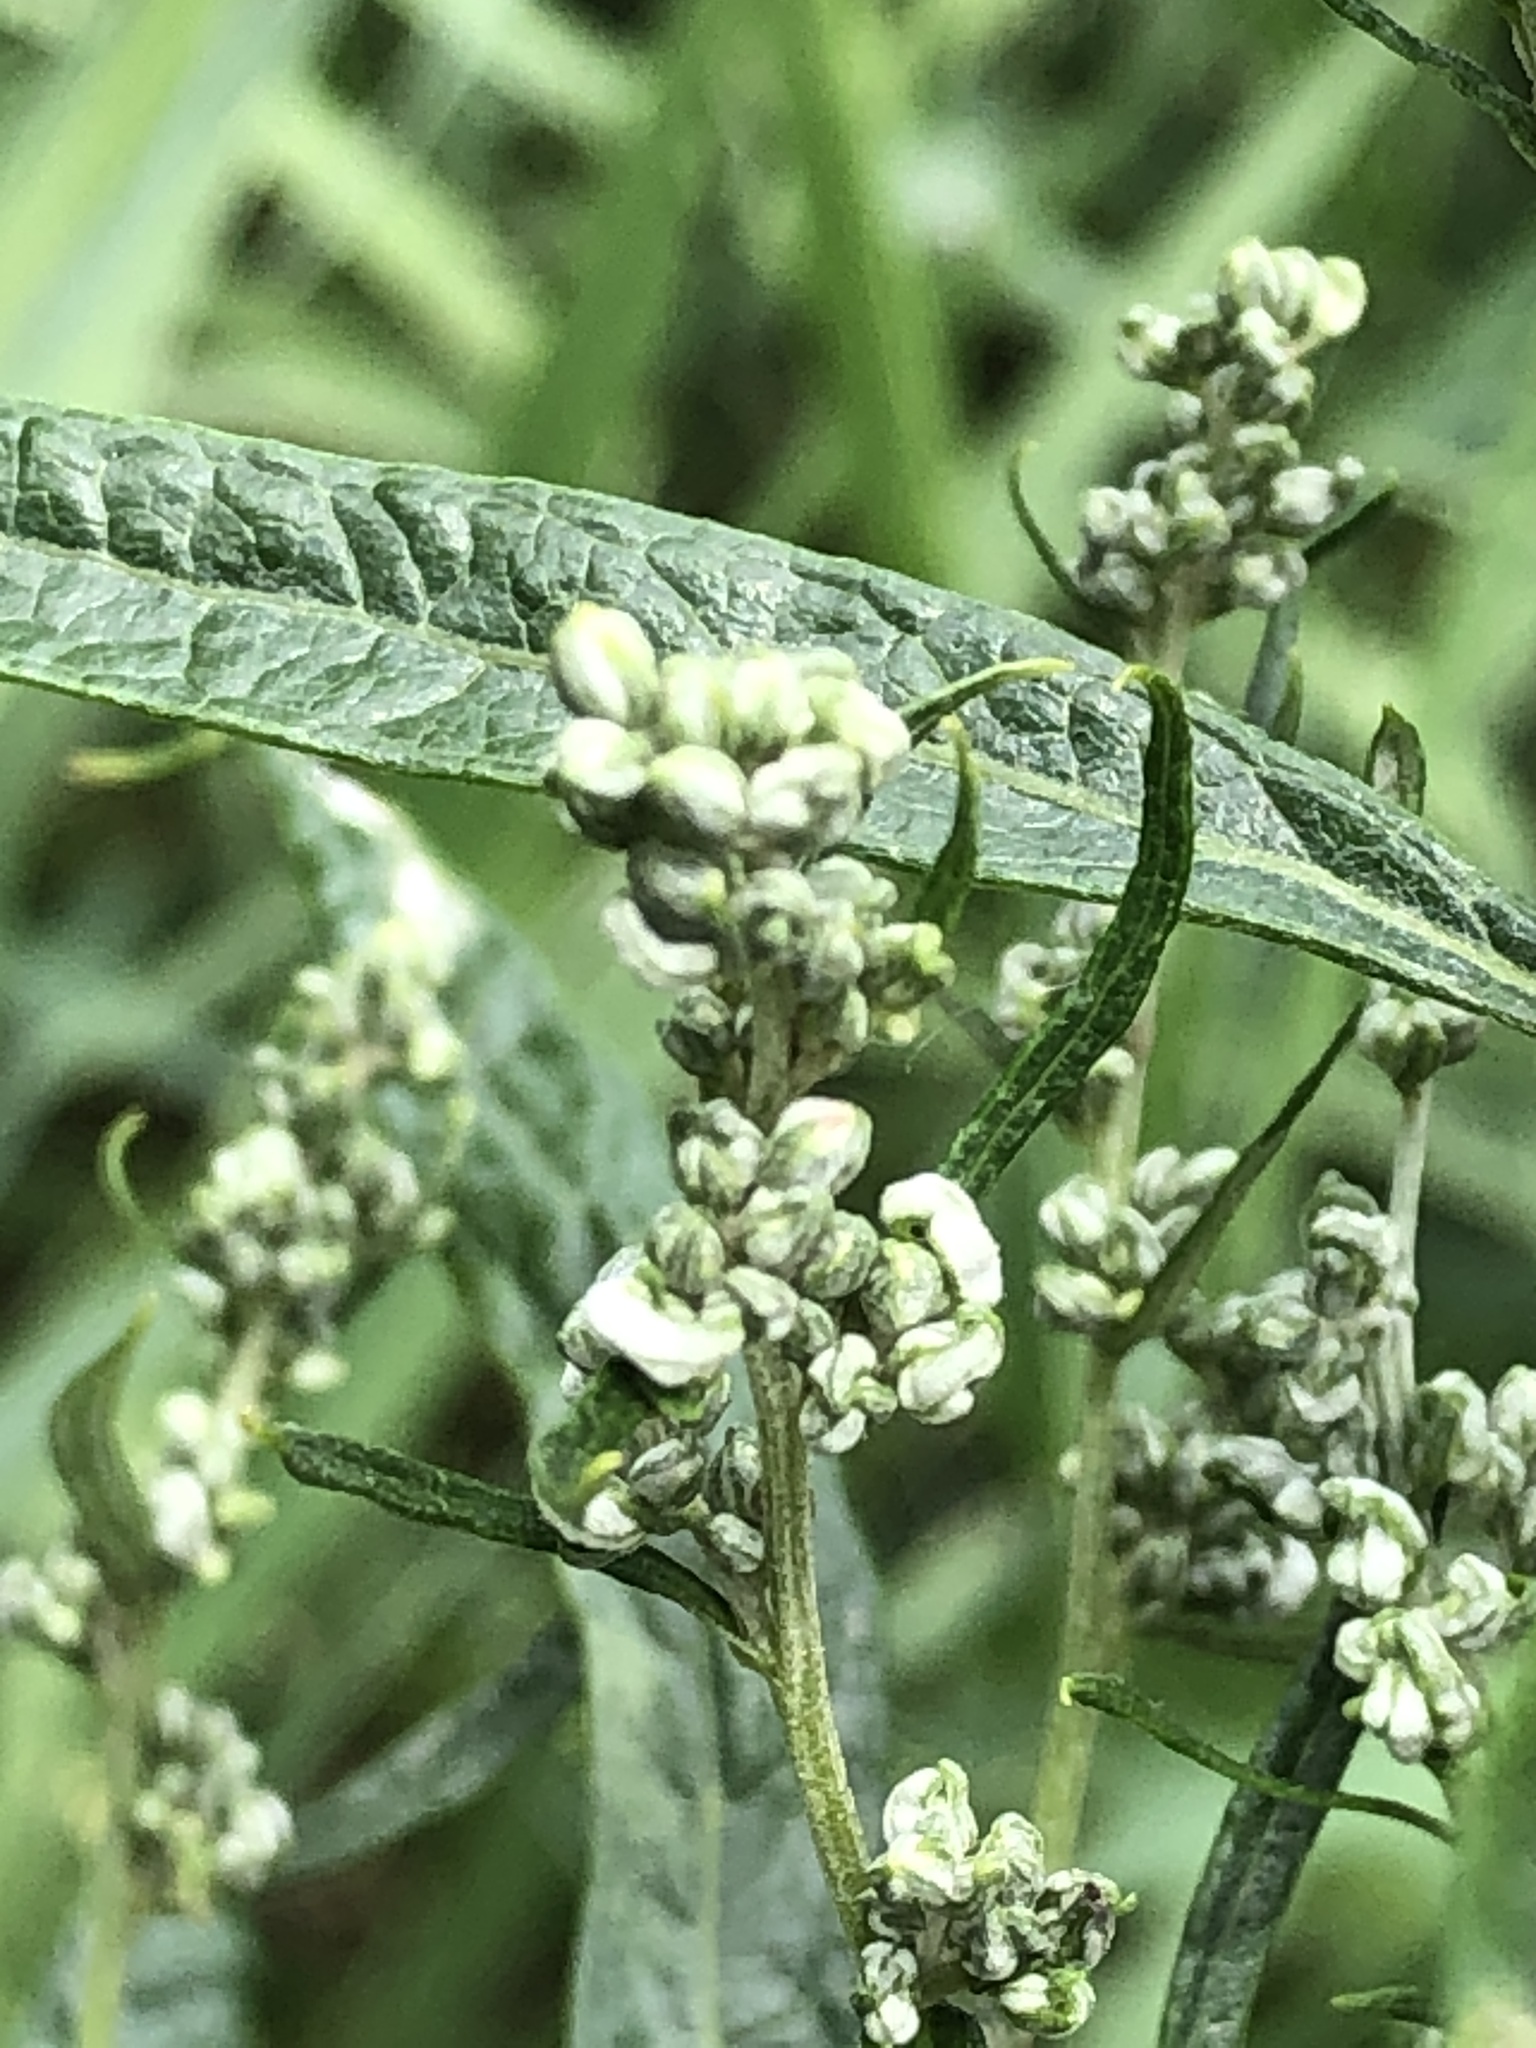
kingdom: Plantae
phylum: Tracheophyta
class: Magnoliopsida
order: Asterales
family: Asteraceae
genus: Artemisia
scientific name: Artemisia serrata
